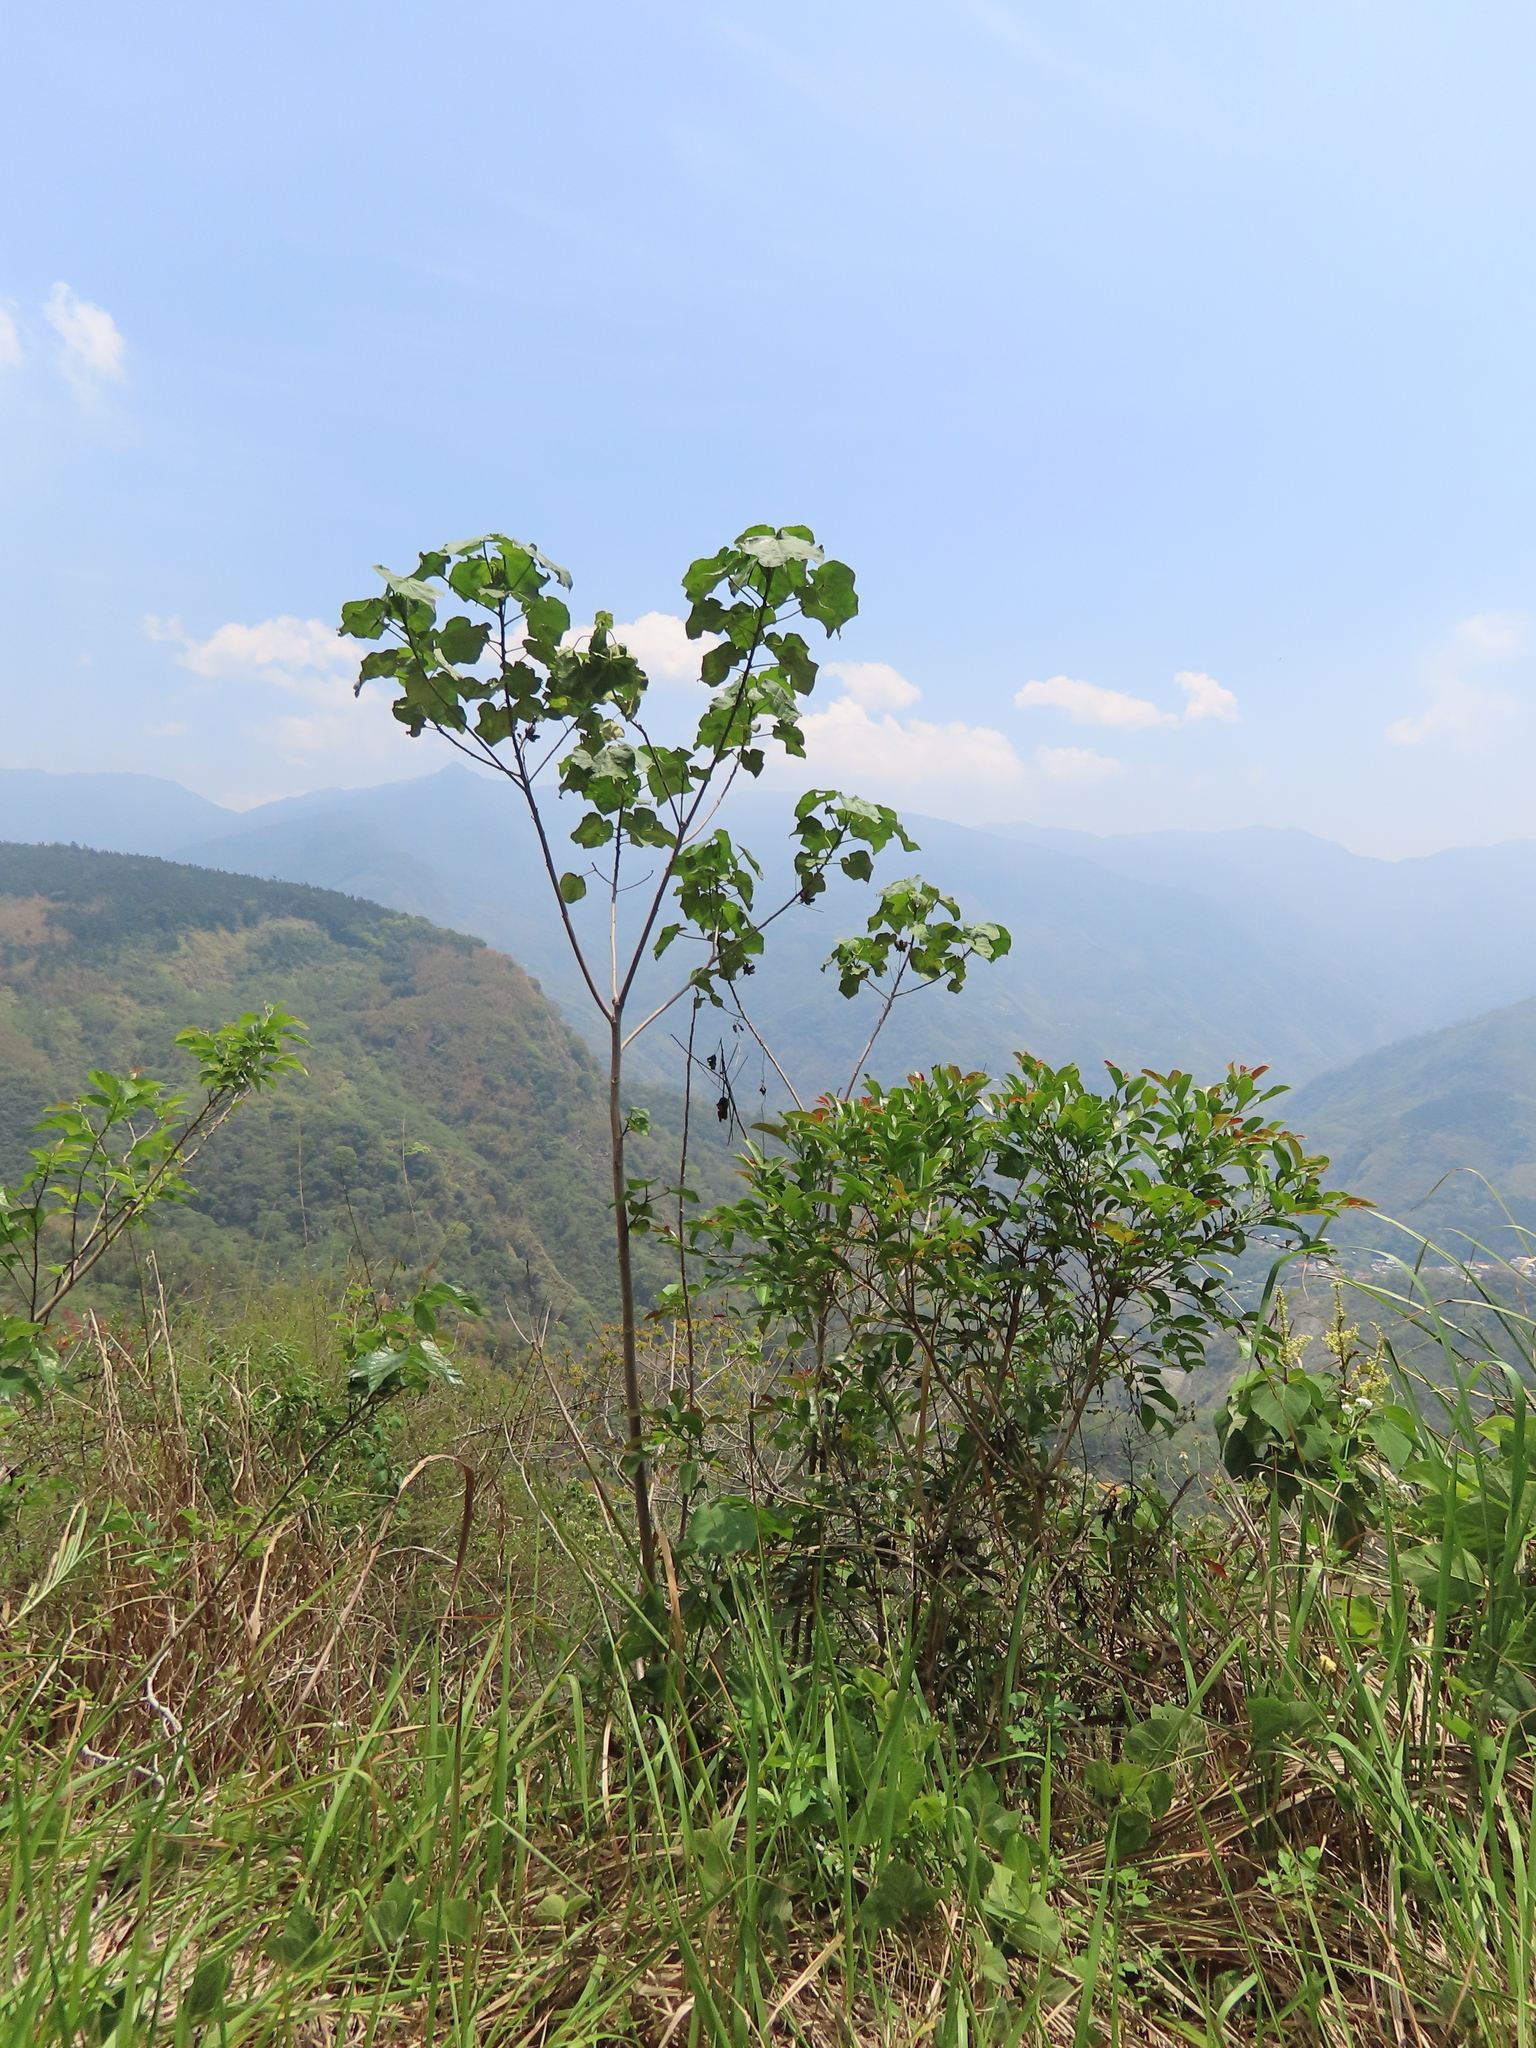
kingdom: Plantae
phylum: Tracheophyta
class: Magnoliopsida
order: Malvales
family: Malvaceae
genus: Hibiscus
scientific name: Hibiscus taiwanensis
